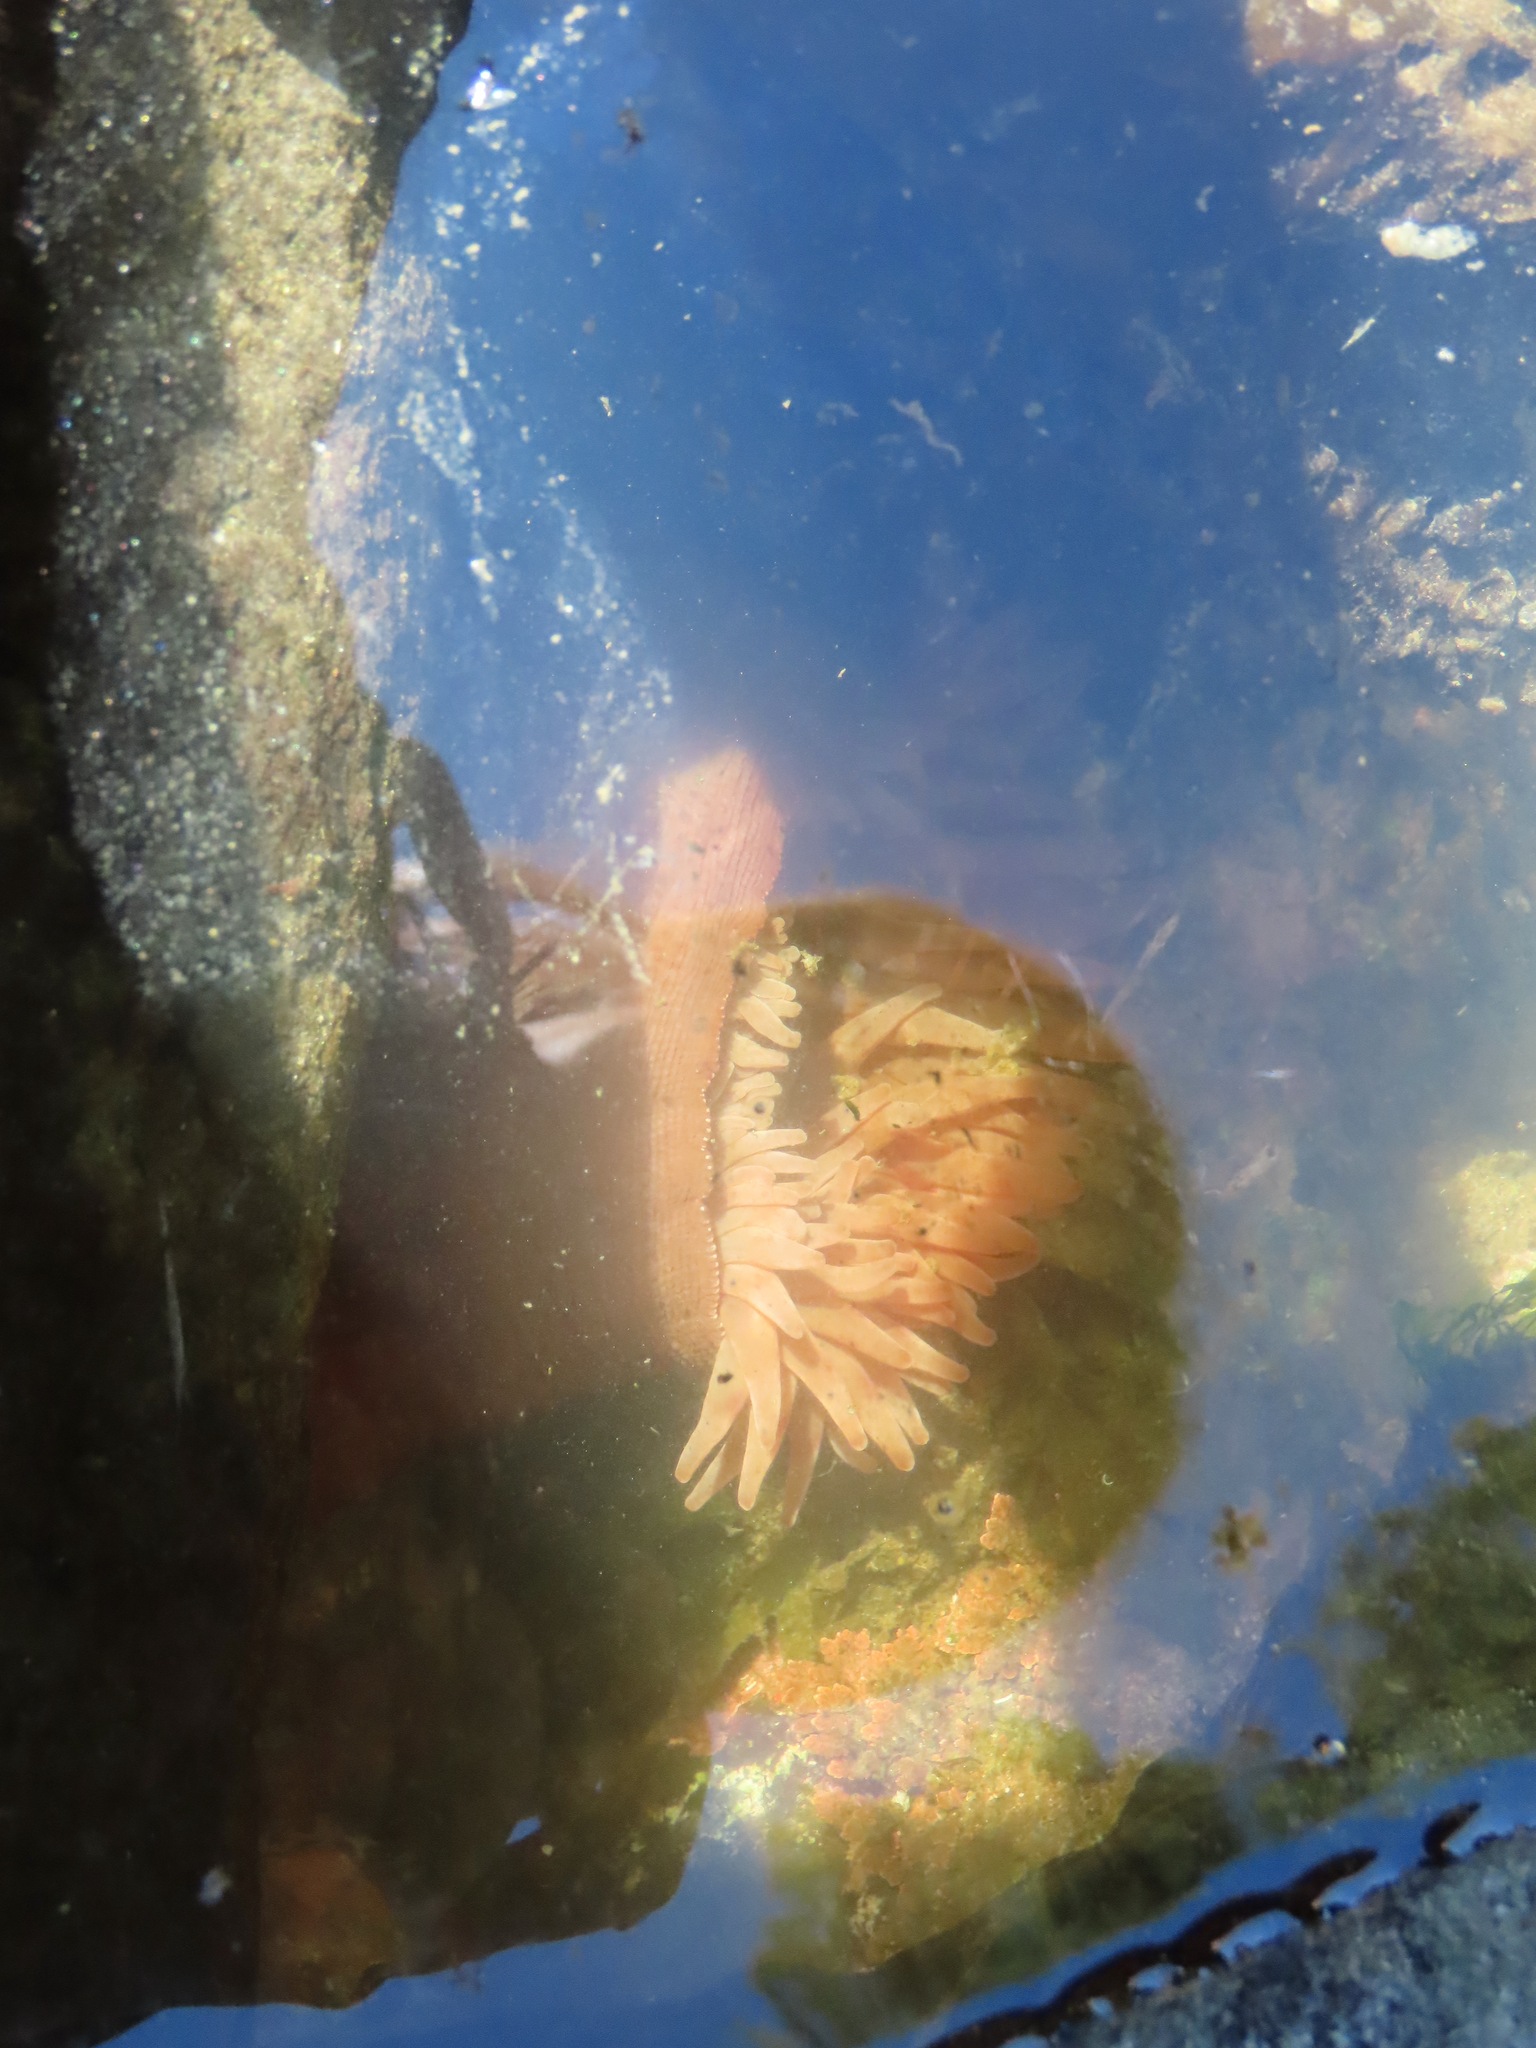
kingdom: Animalia
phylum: Cnidaria
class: Anthozoa
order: Actiniaria
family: Actiniidae
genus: Urticina
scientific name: Urticina grebelnyi
